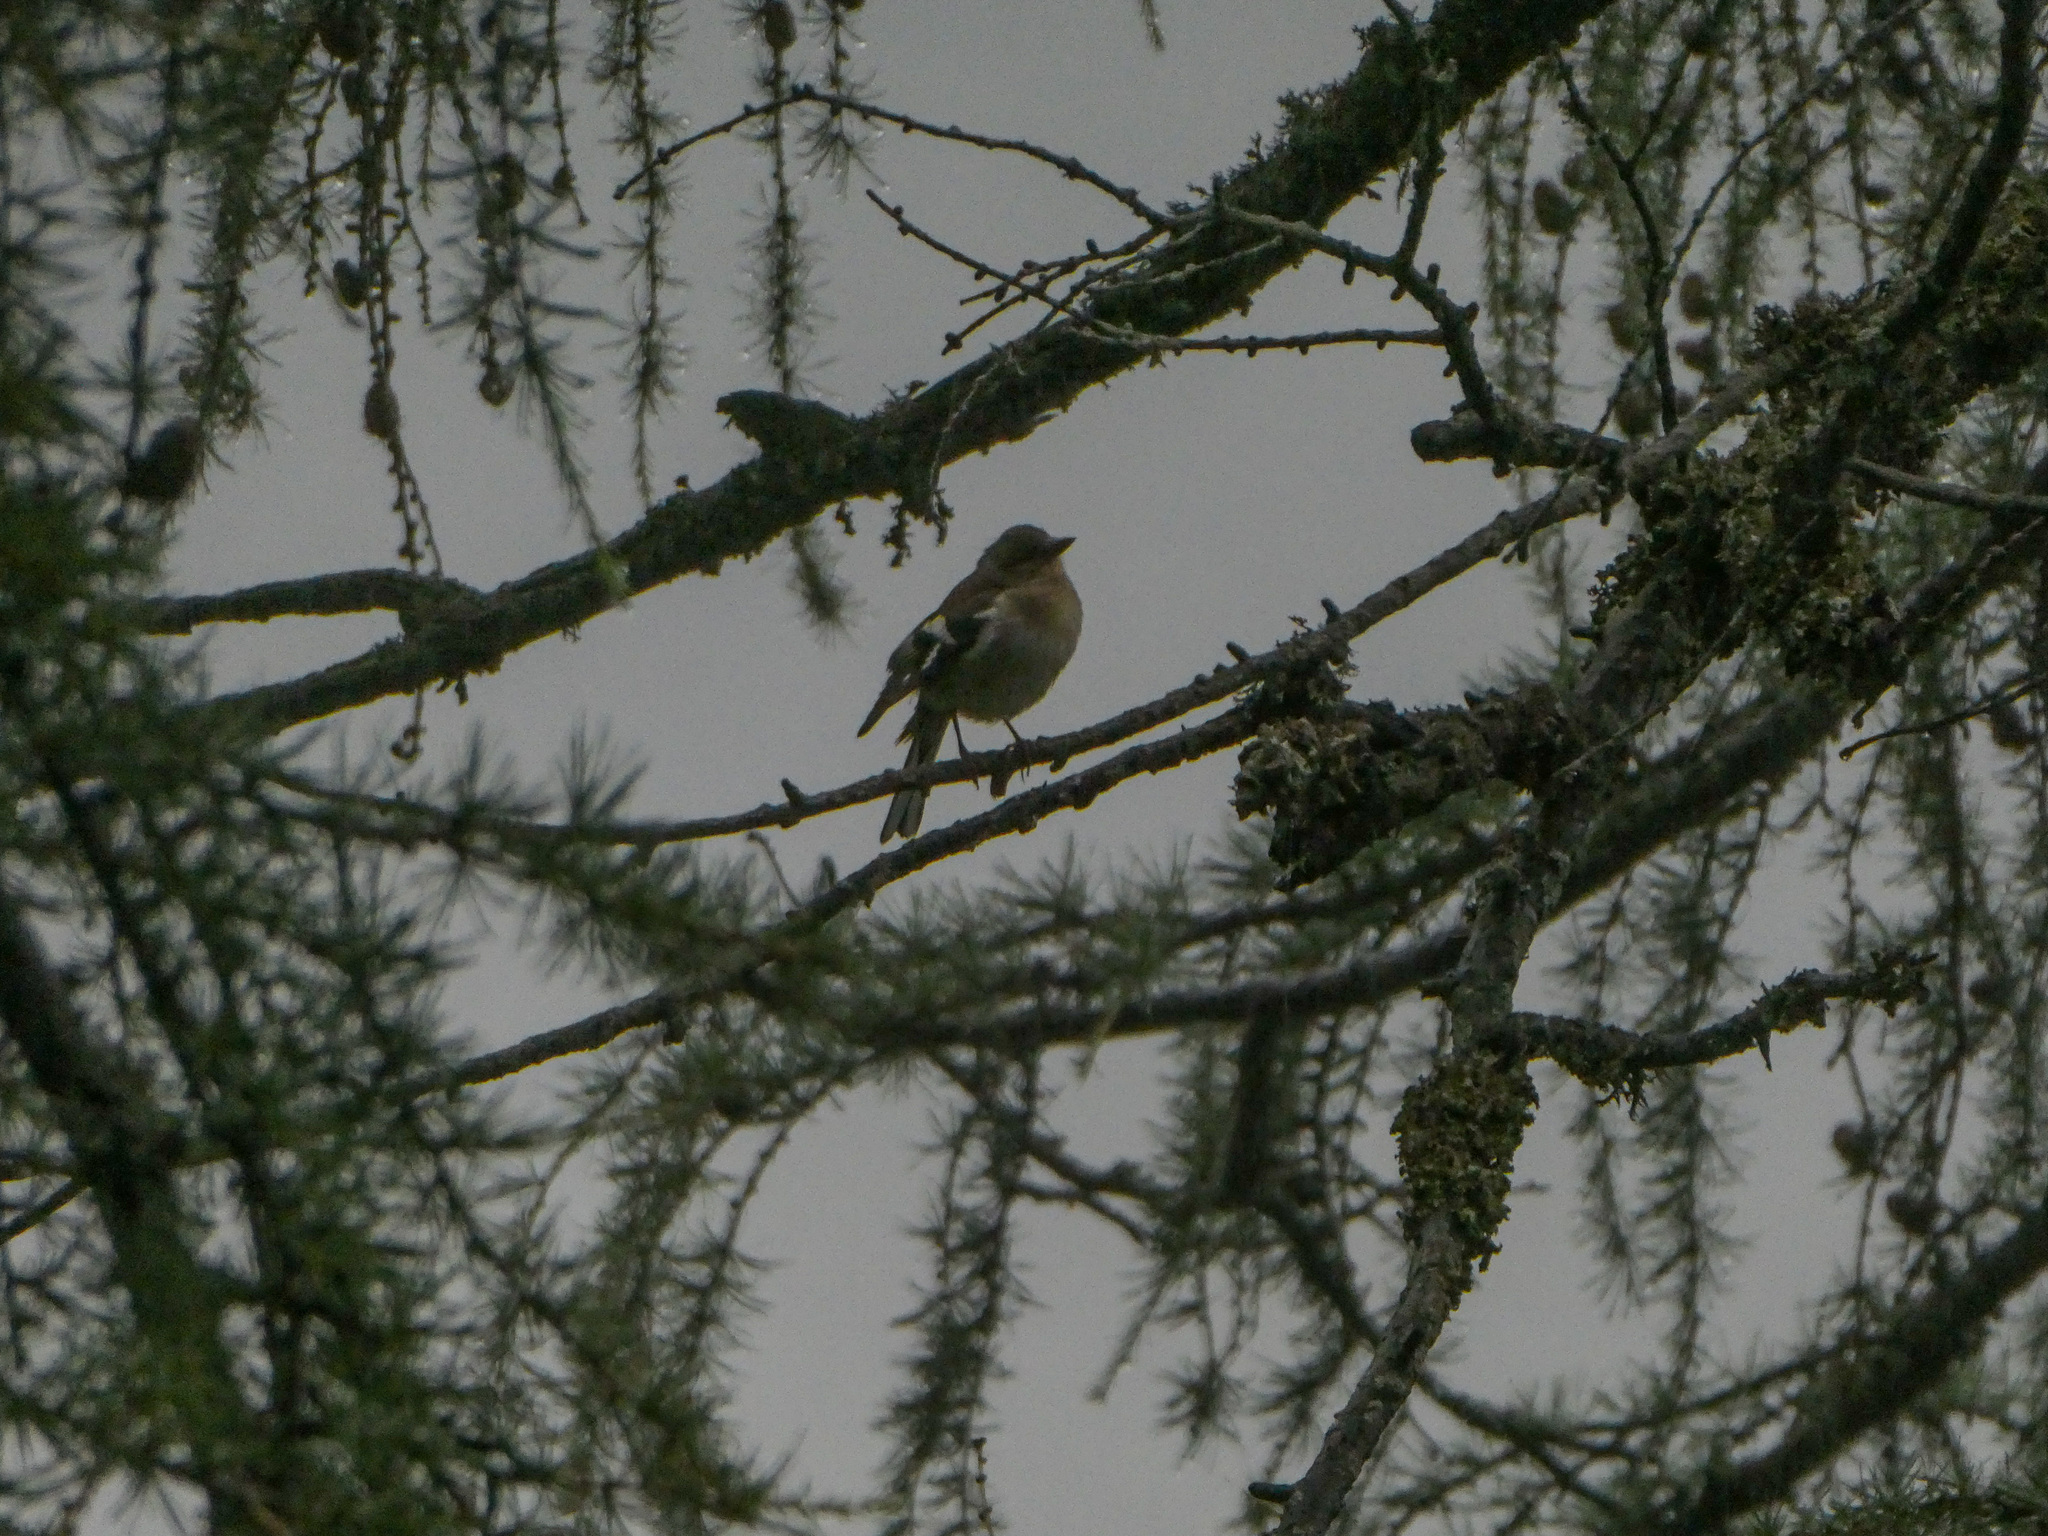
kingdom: Animalia
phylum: Chordata
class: Aves
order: Passeriformes
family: Fringillidae
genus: Fringilla
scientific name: Fringilla coelebs
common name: Common chaffinch
